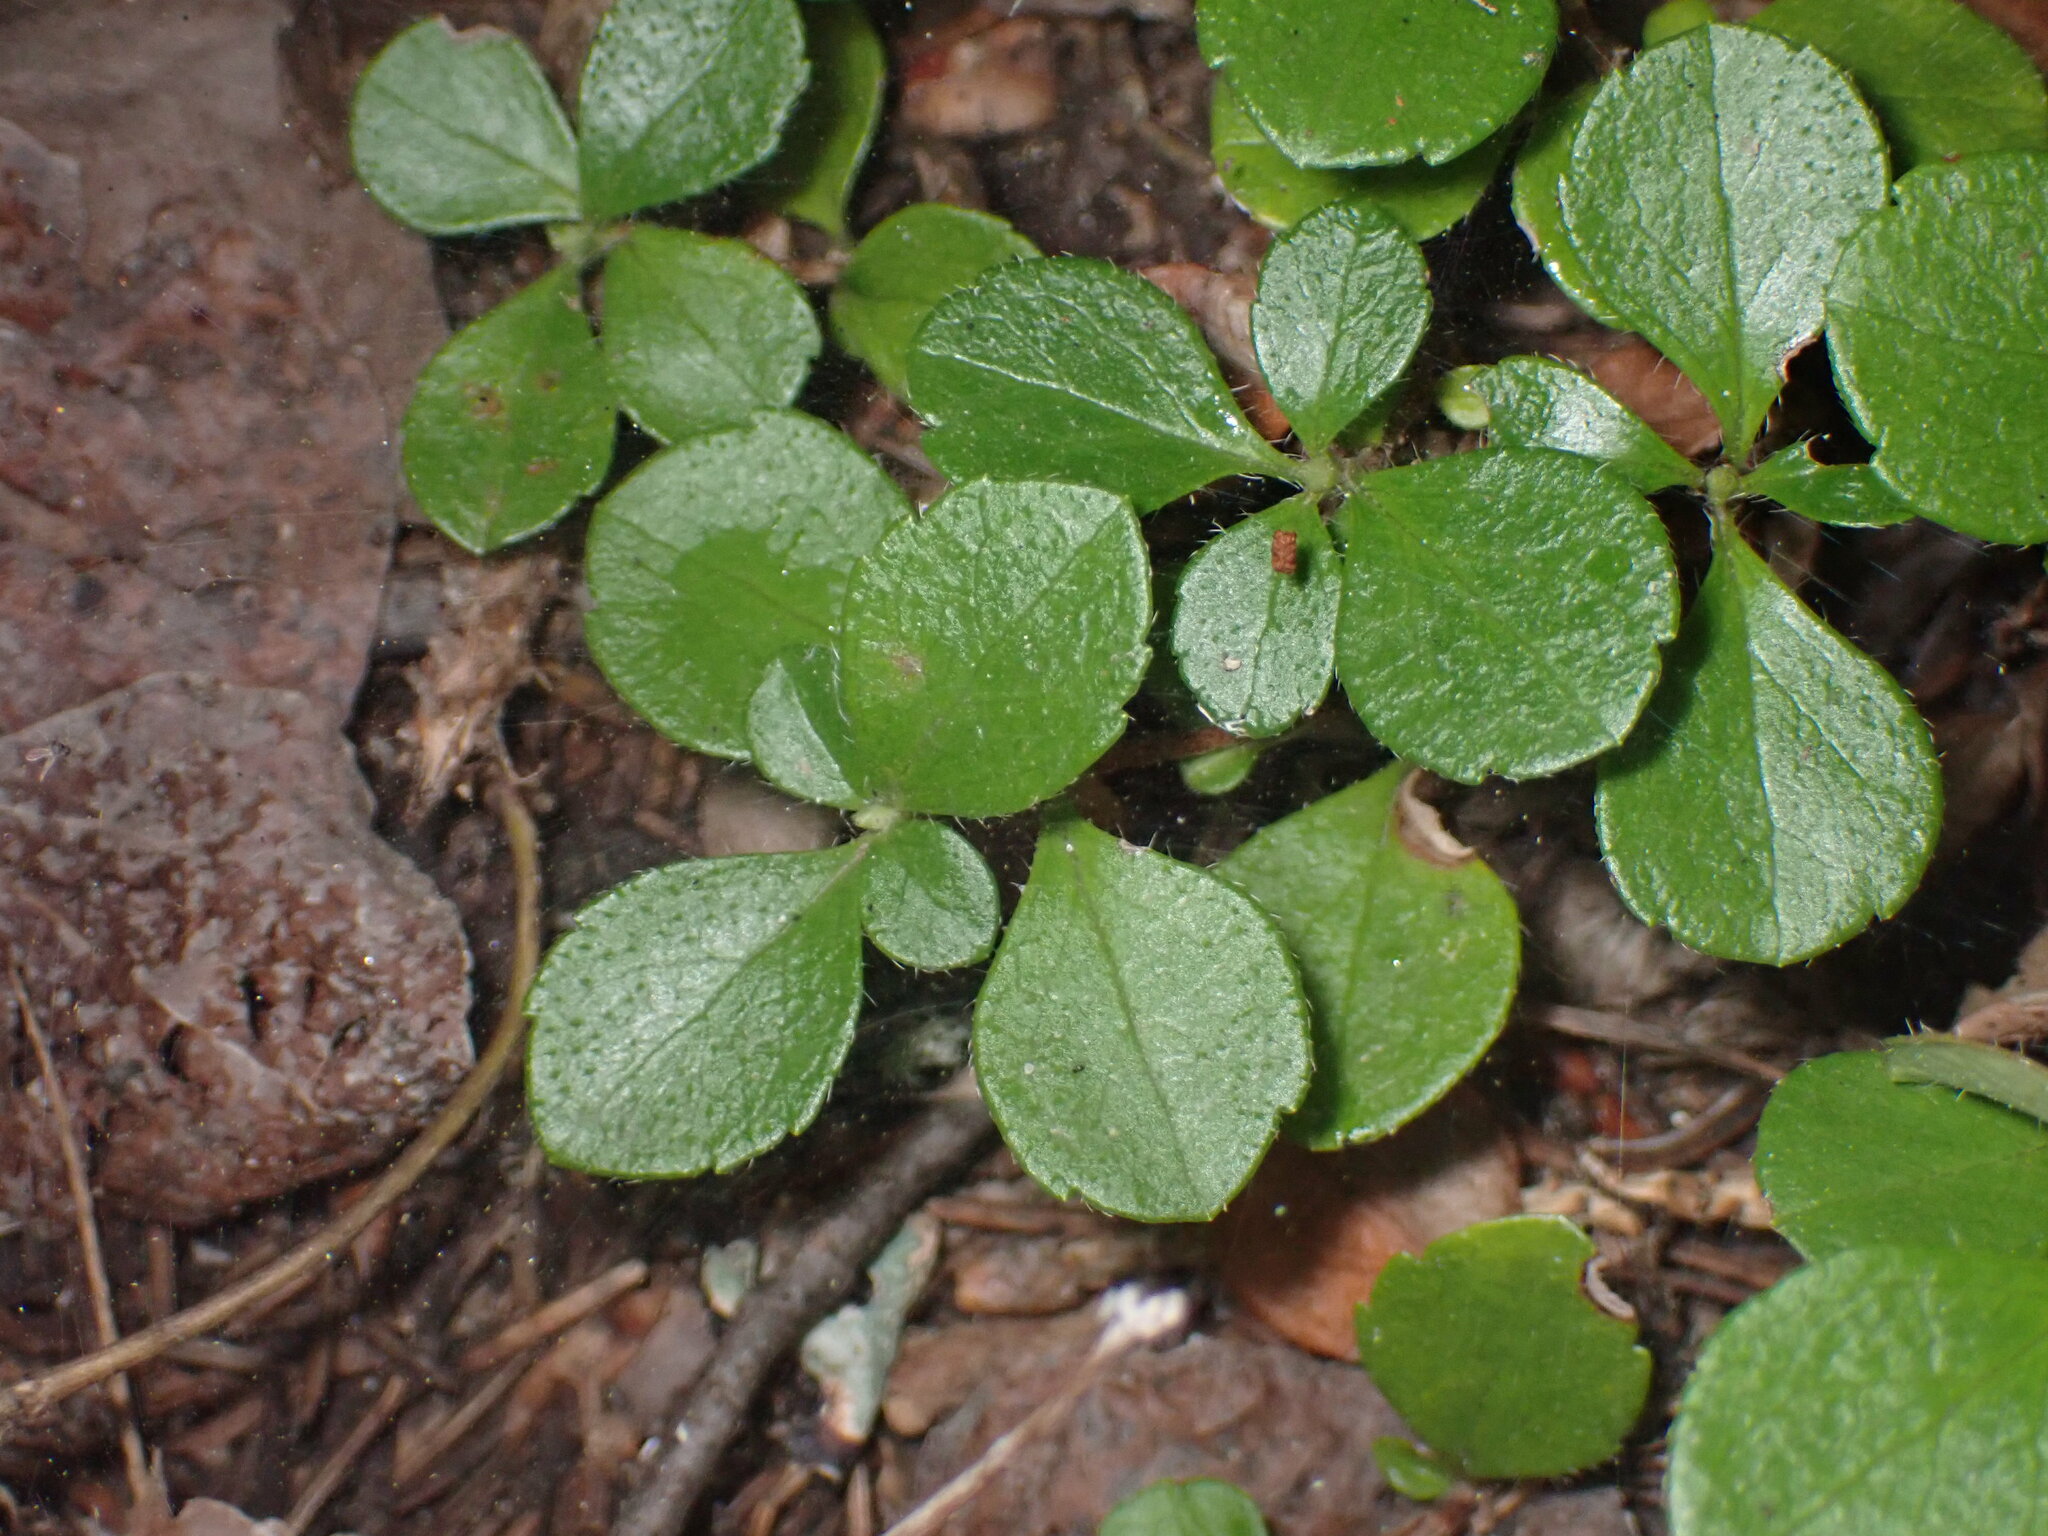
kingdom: Plantae
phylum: Tracheophyta
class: Magnoliopsida
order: Dipsacales
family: Caprifoliaceae
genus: Linnaea
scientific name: Linnaea borealis
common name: Twinflower
